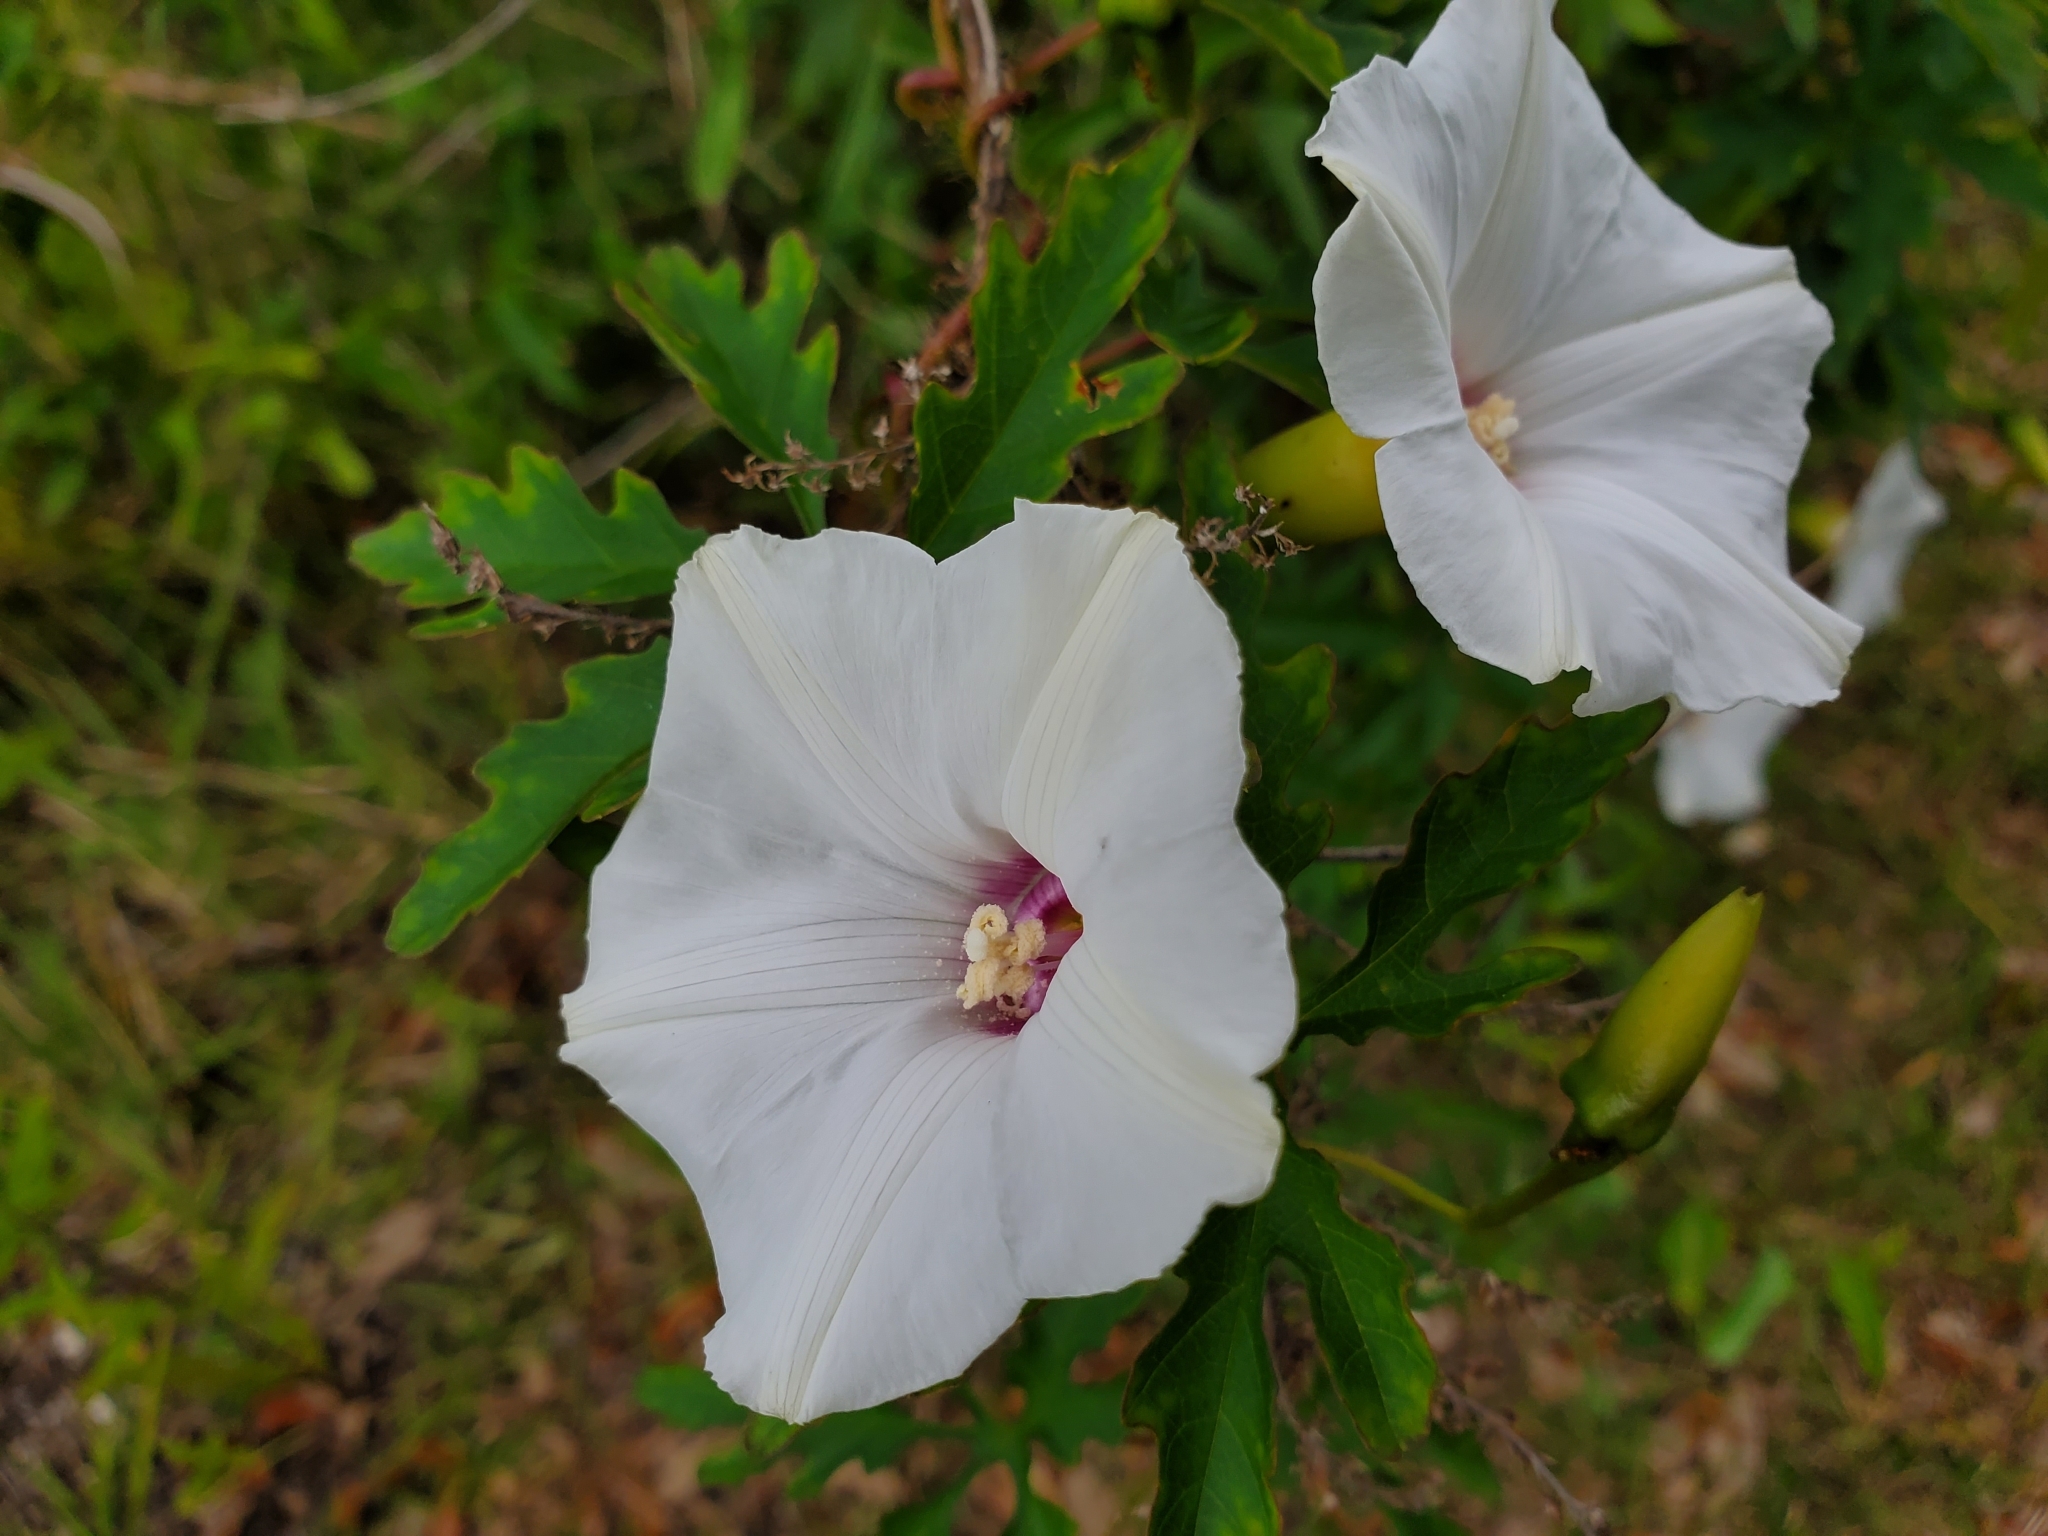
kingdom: Plantae
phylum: Tracheophyta
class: Magnoliopsida
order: Solanales
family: Convolvulaceae
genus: Distimake
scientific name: Distimake dissectus
